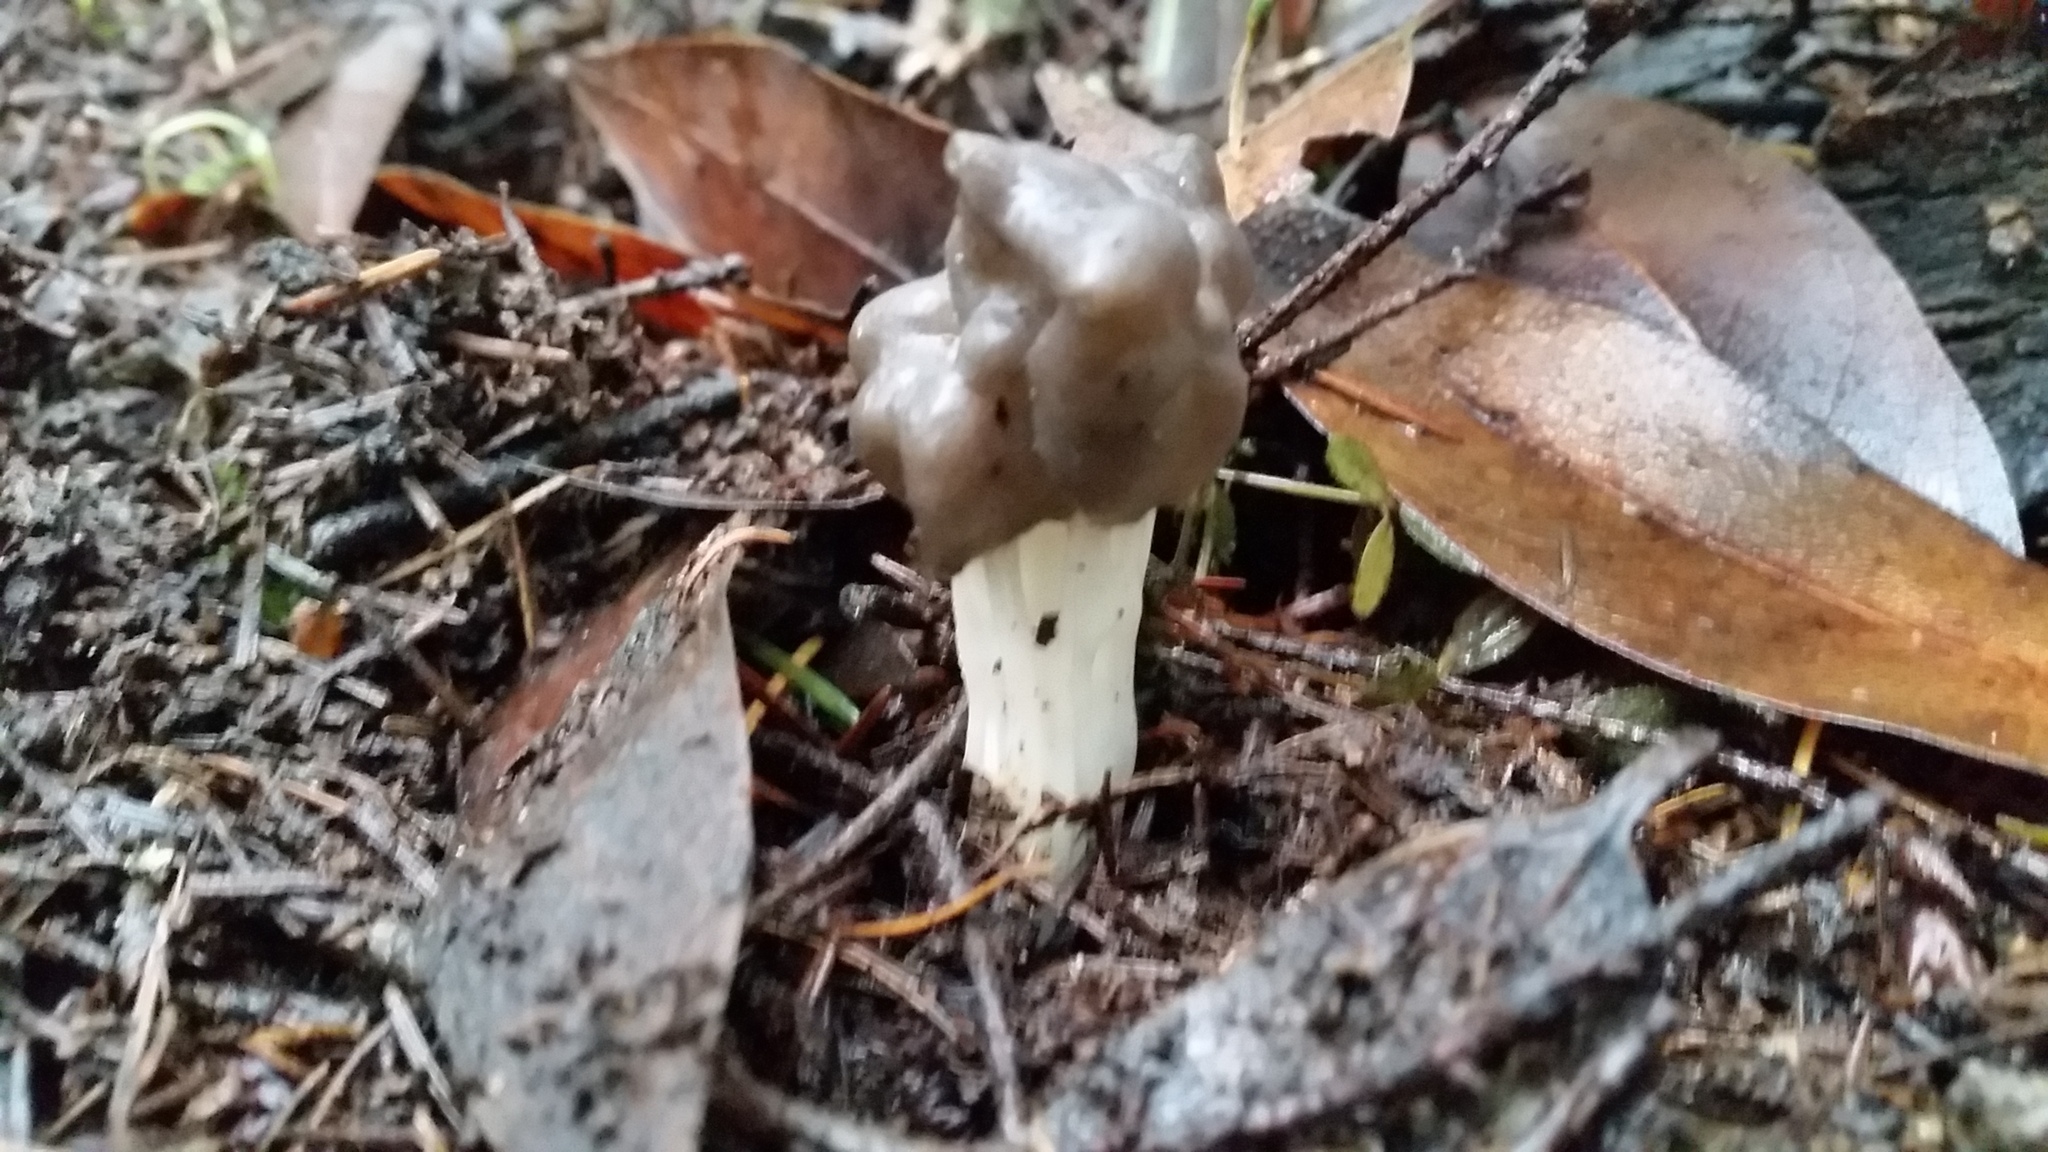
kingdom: Fungi
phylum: Ascomycota
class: Pezizomycetes
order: Pezizales
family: Helvellaceae
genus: Helvella
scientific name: Helvella vespertina
